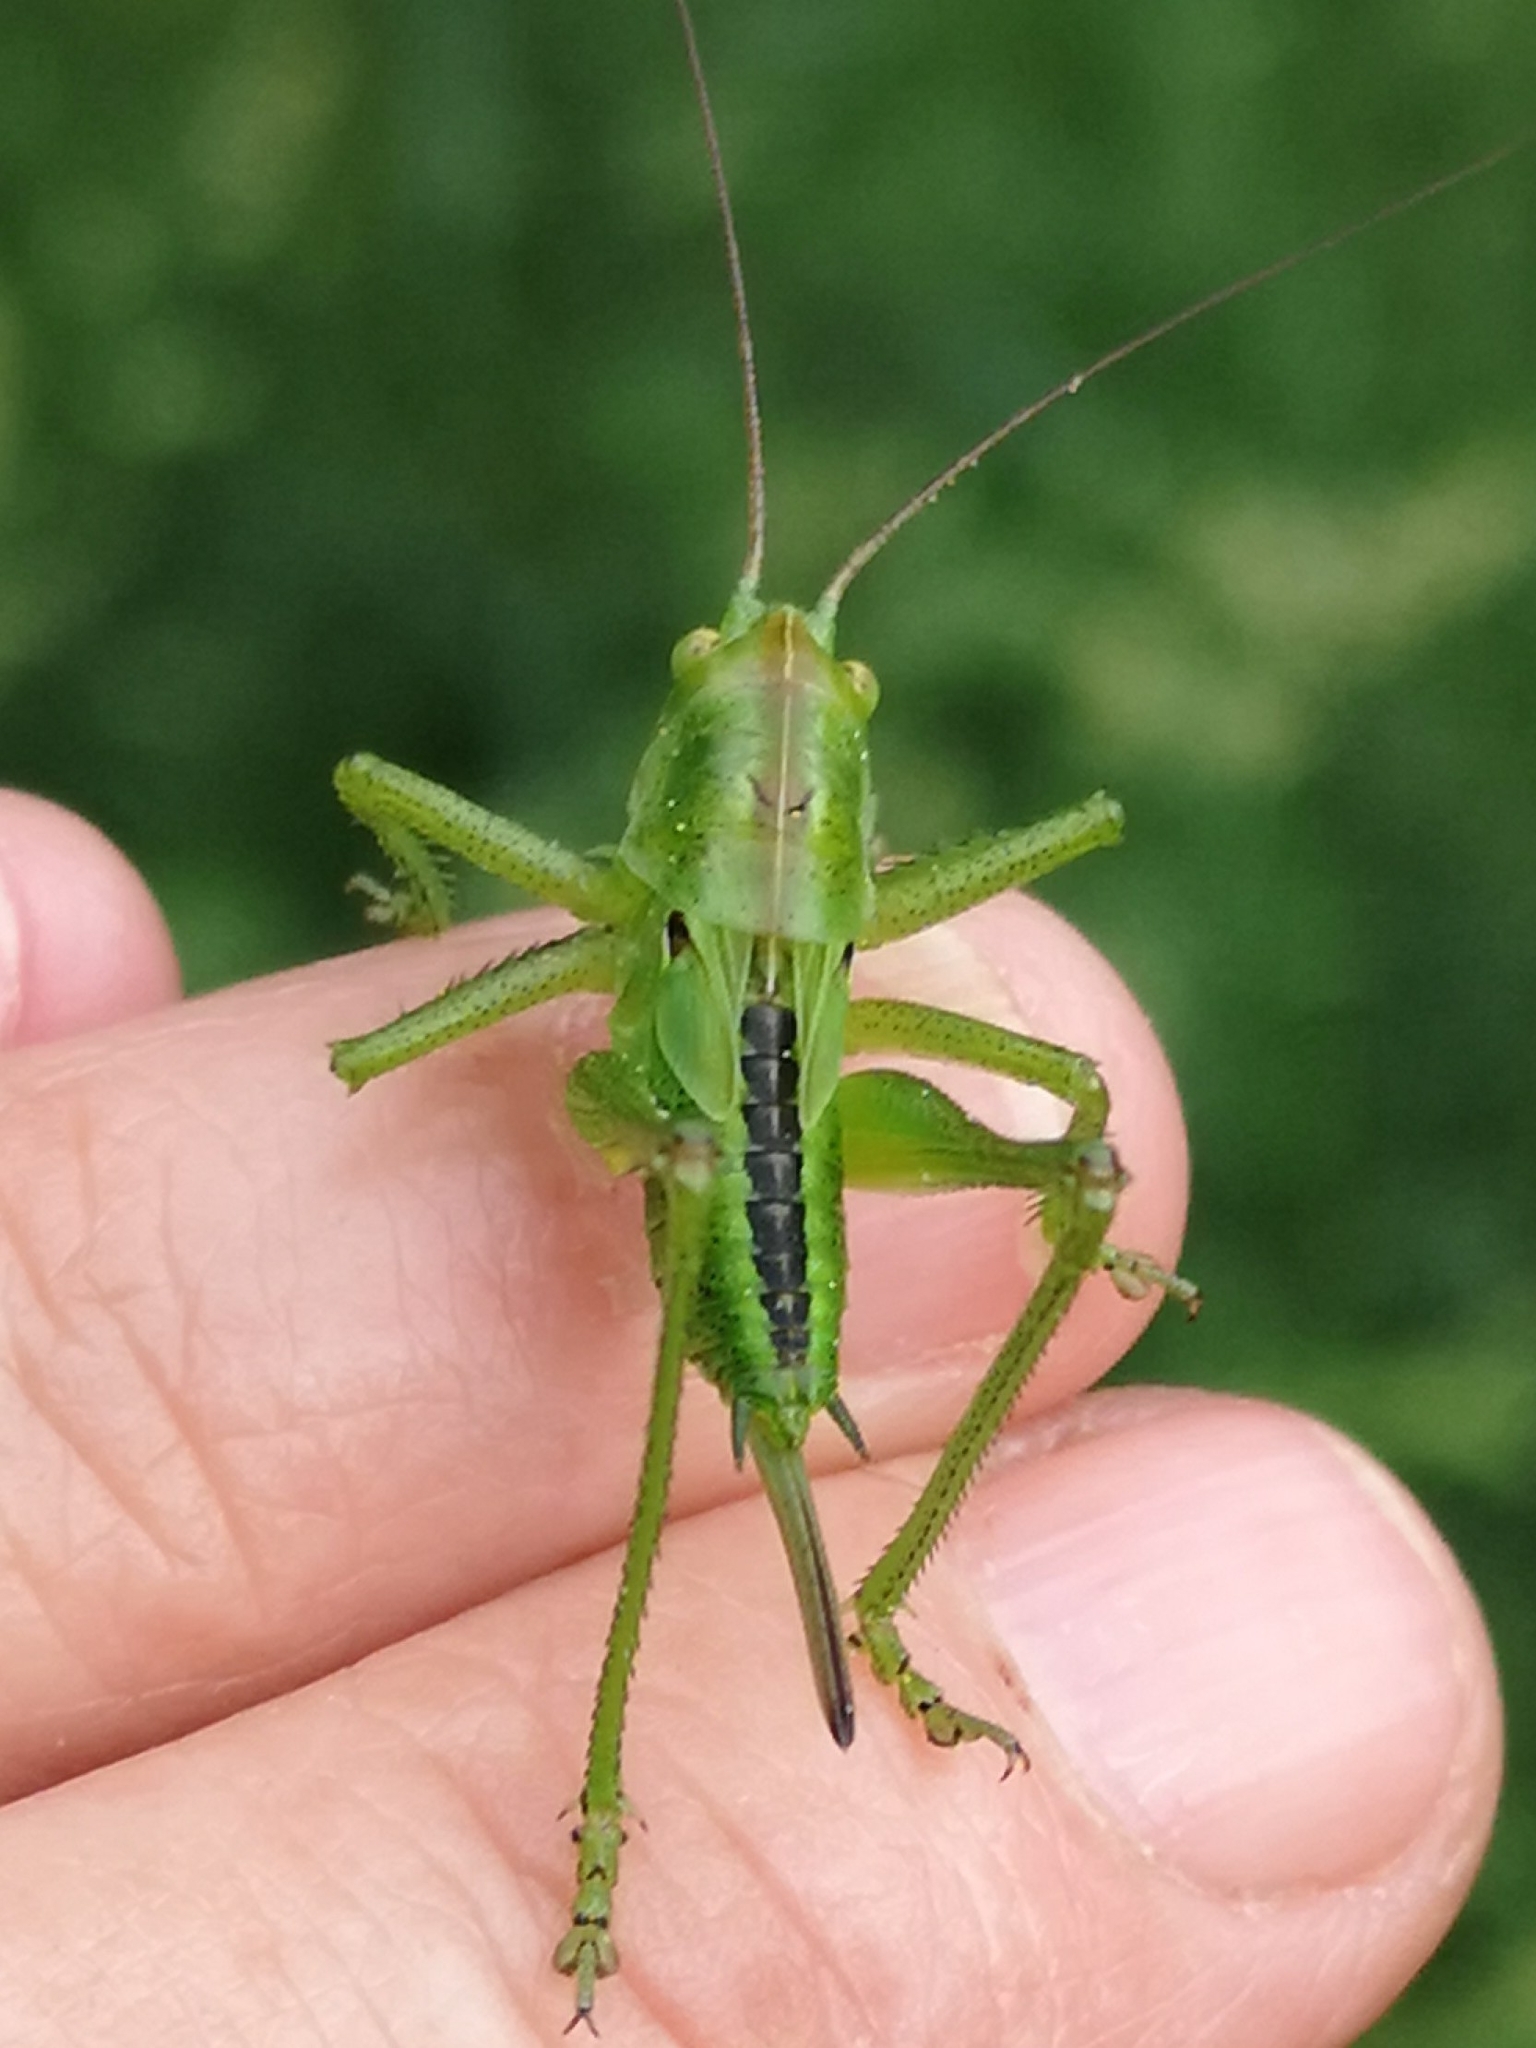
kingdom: Animalia
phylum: Arthropoda
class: Insecta
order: Orthoptera
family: Tettigoniidae
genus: Tettigonia
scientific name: Tettigonia viridissima
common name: Great green bush-cricket
